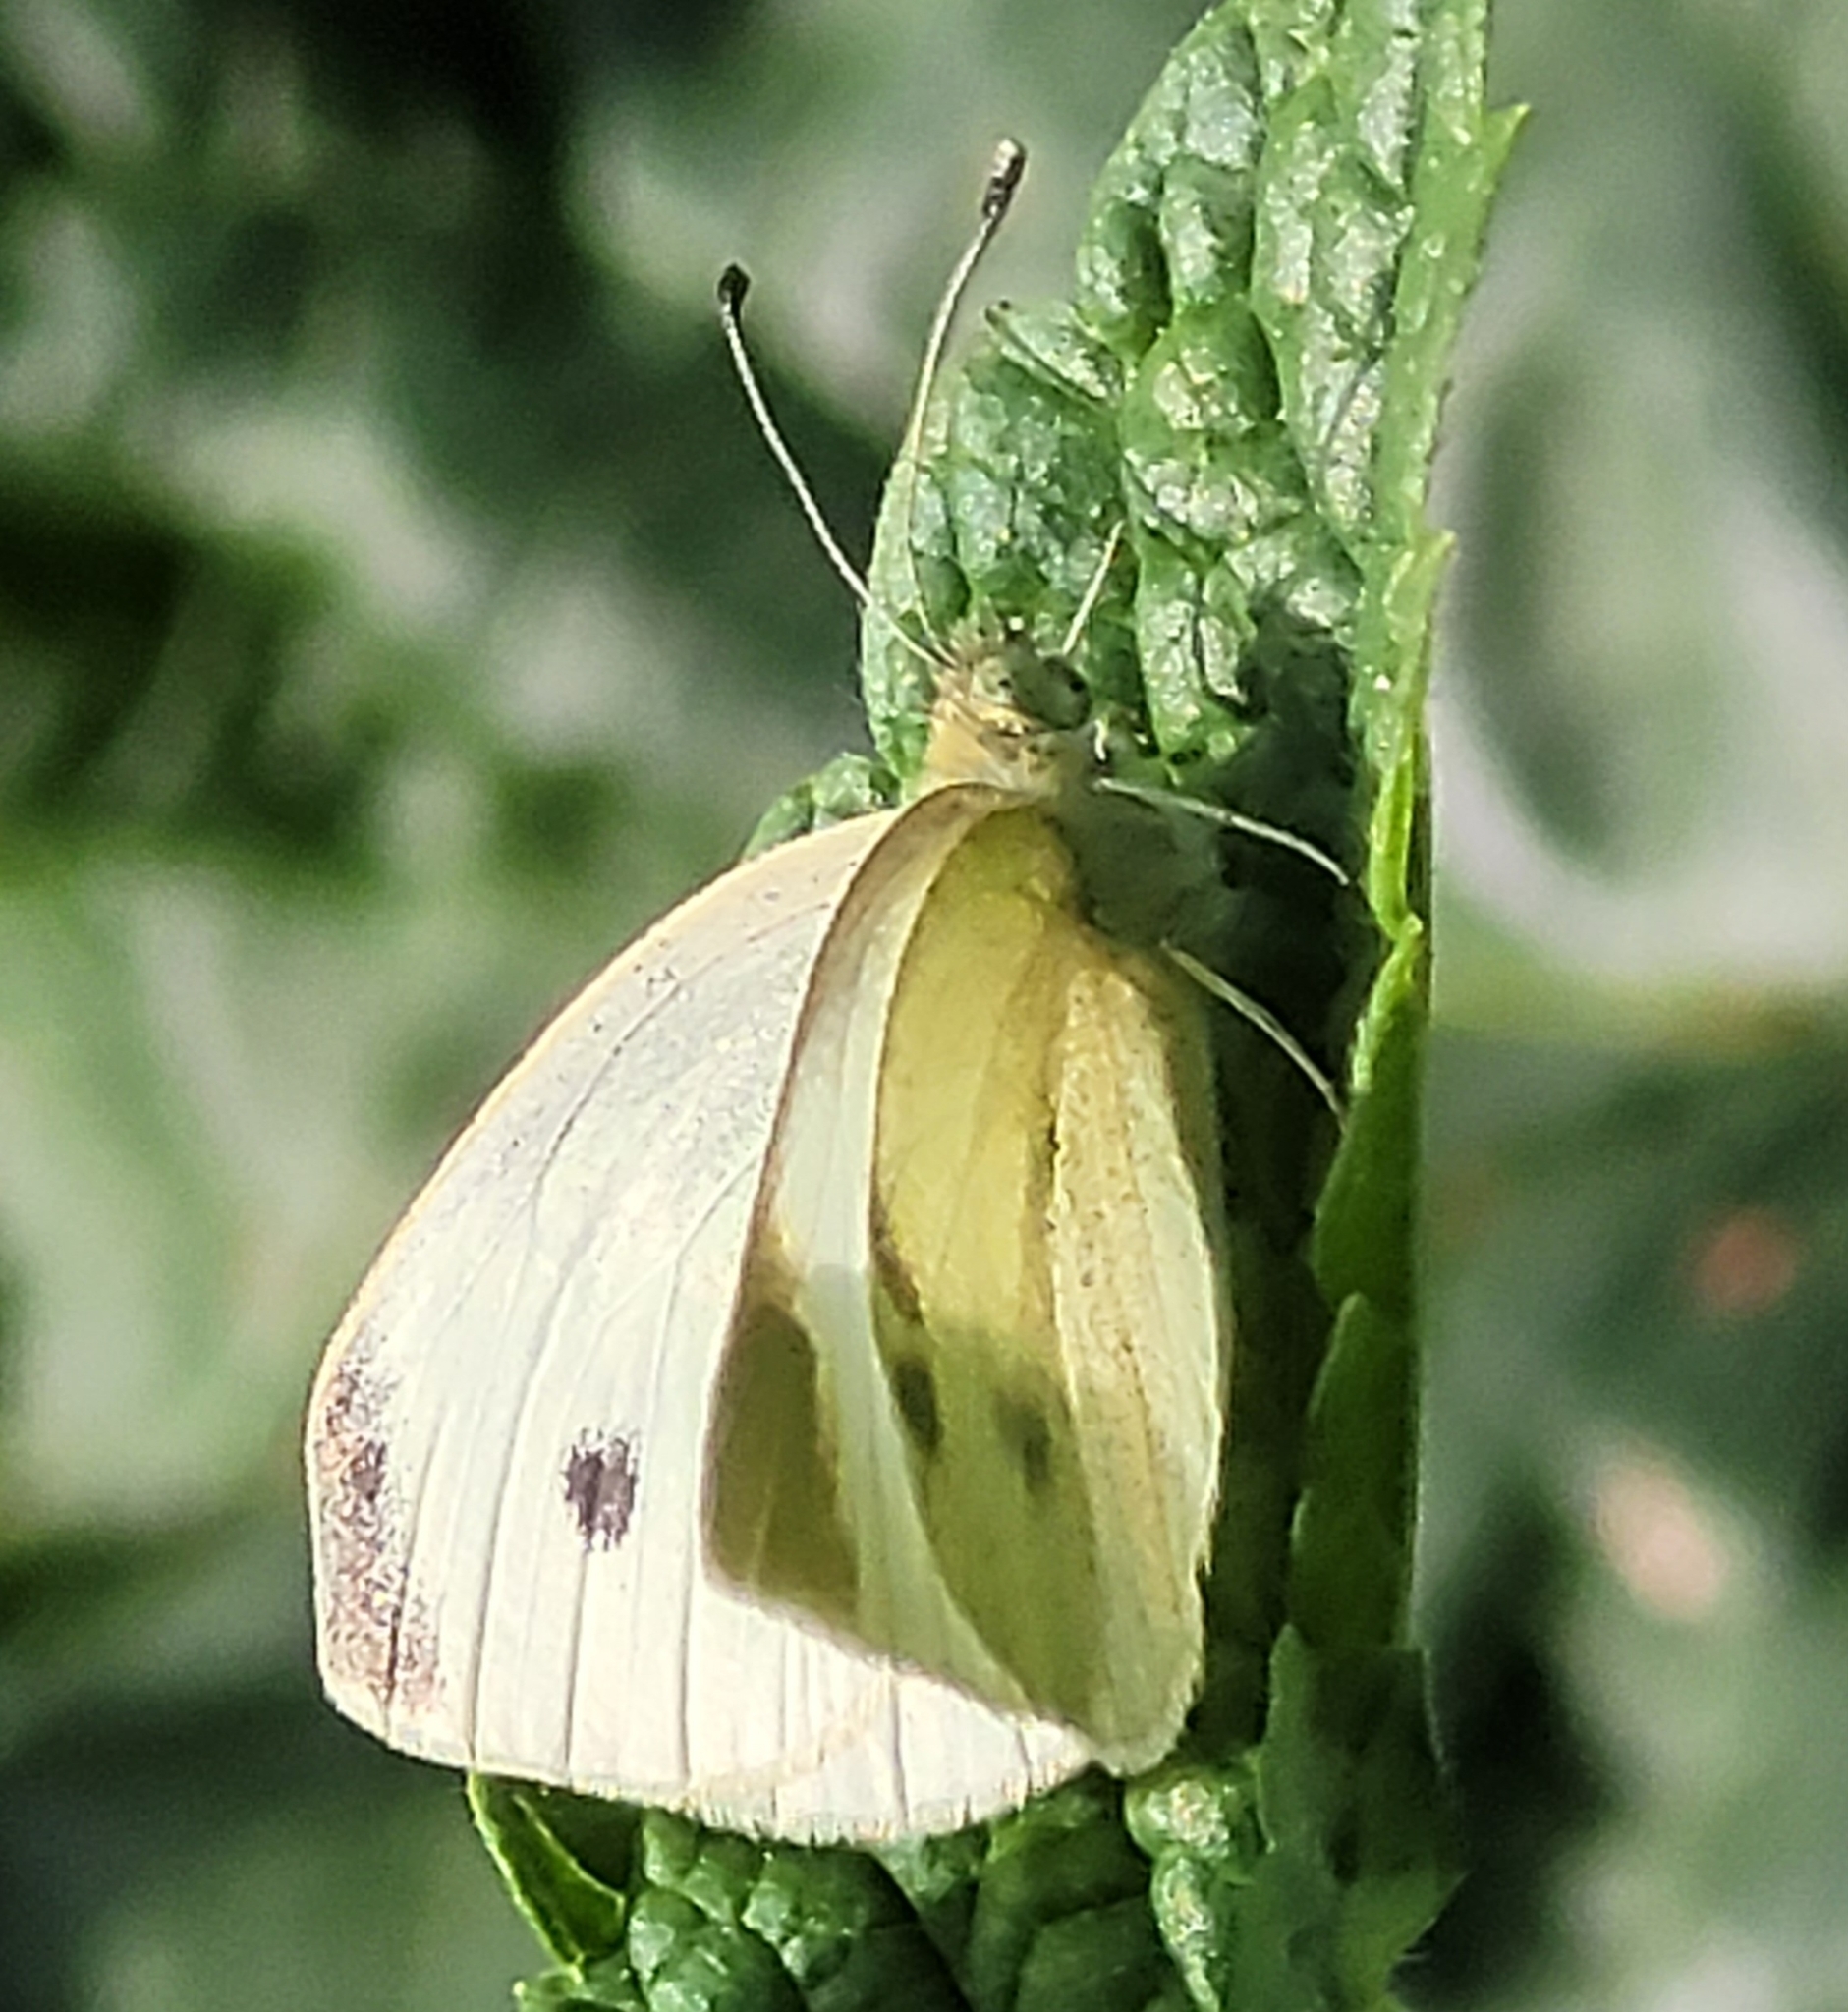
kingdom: Animalia
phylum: Arthropoda
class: Insecta
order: Lepidoptera
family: Pieridae
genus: Pieris
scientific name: Pieris rapae
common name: Small white
